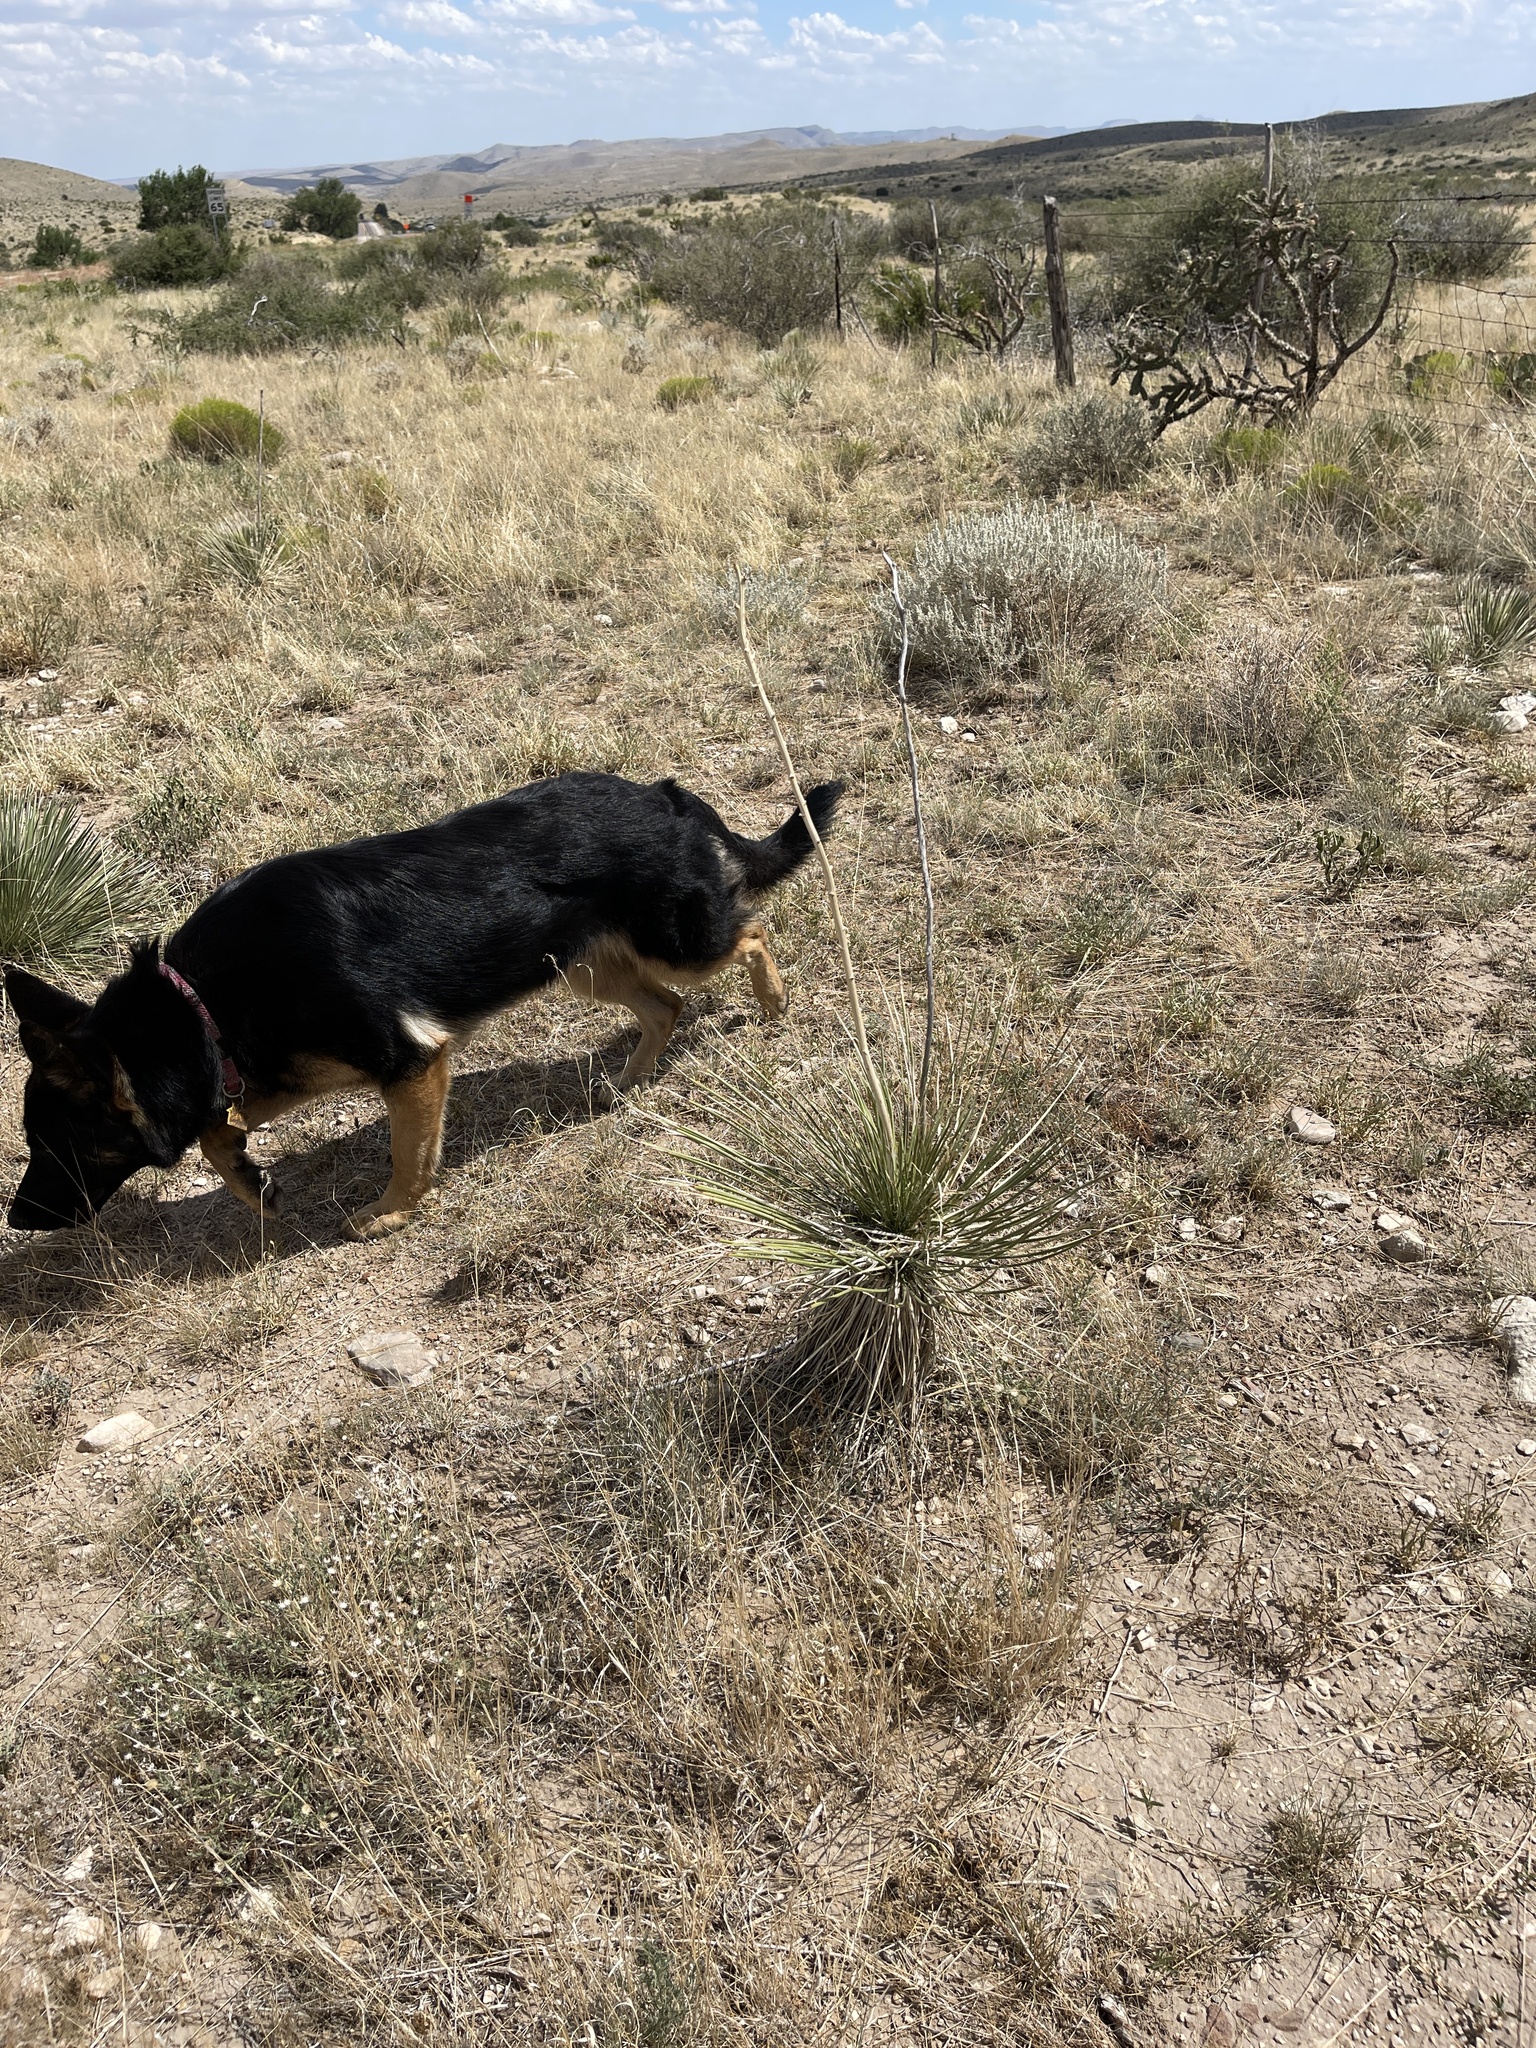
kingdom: Plantae
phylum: Tracheophyta
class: Liliopsida
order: Asparagales
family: Asparagaceae
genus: Yucca
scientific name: Yucca elata
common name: Palmella
